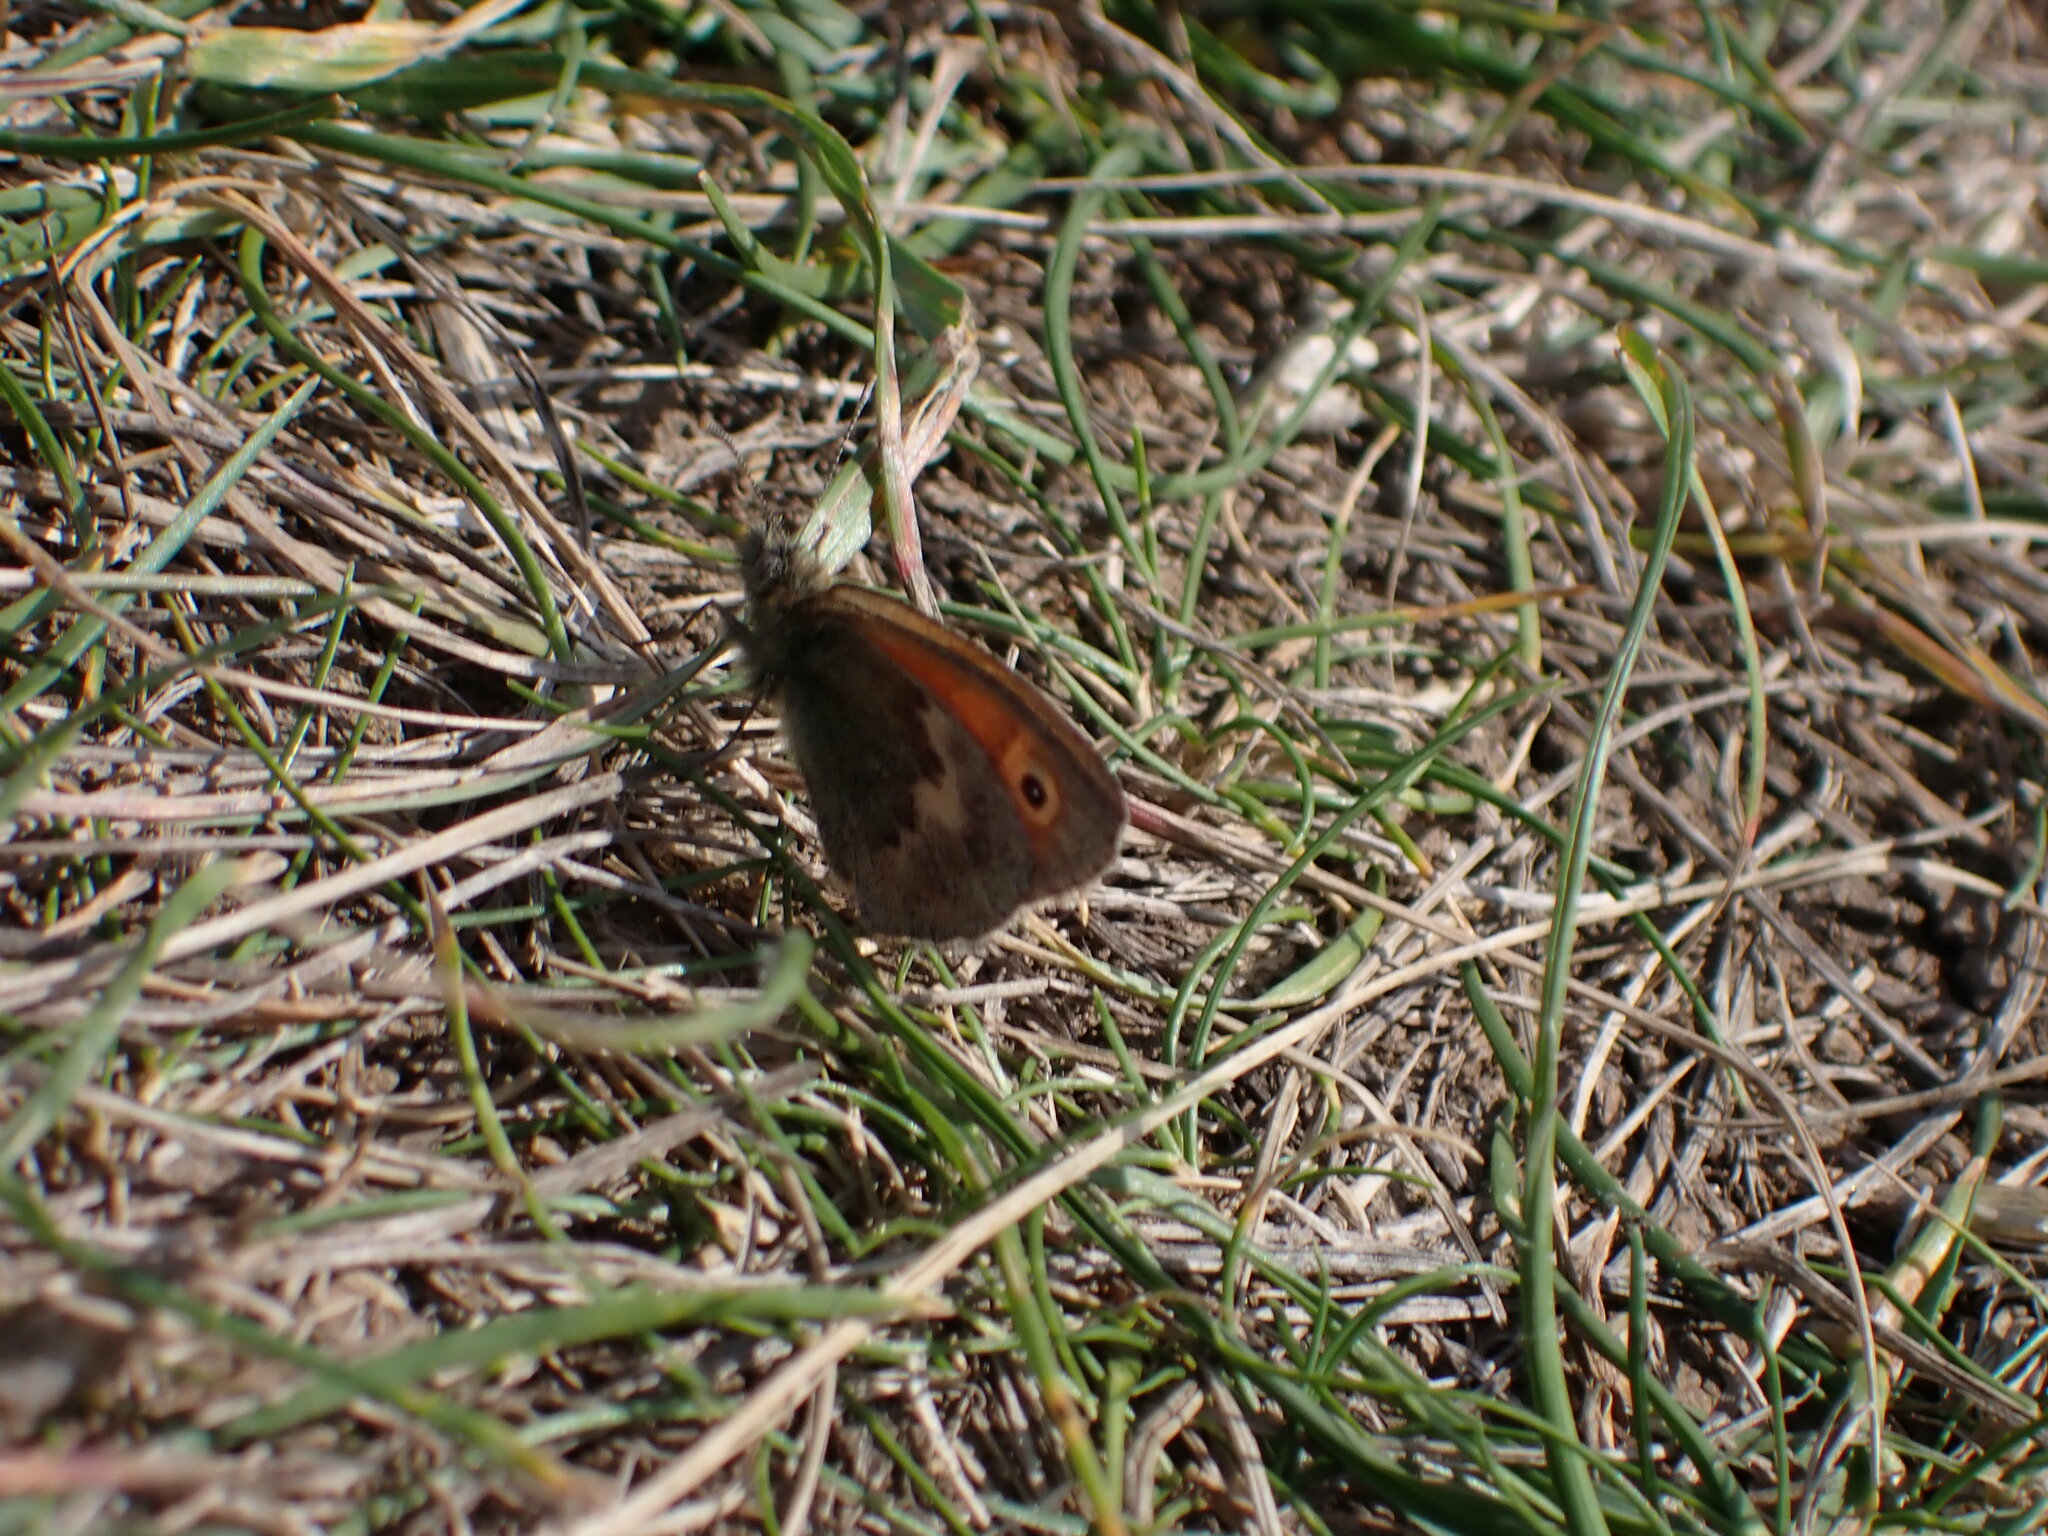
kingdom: Animalia
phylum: Arthropoda
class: Insecta
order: Lepidoptera
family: Nymphalidae
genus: Coenonympha
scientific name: Coenonympha pamphilus
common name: Small heath
